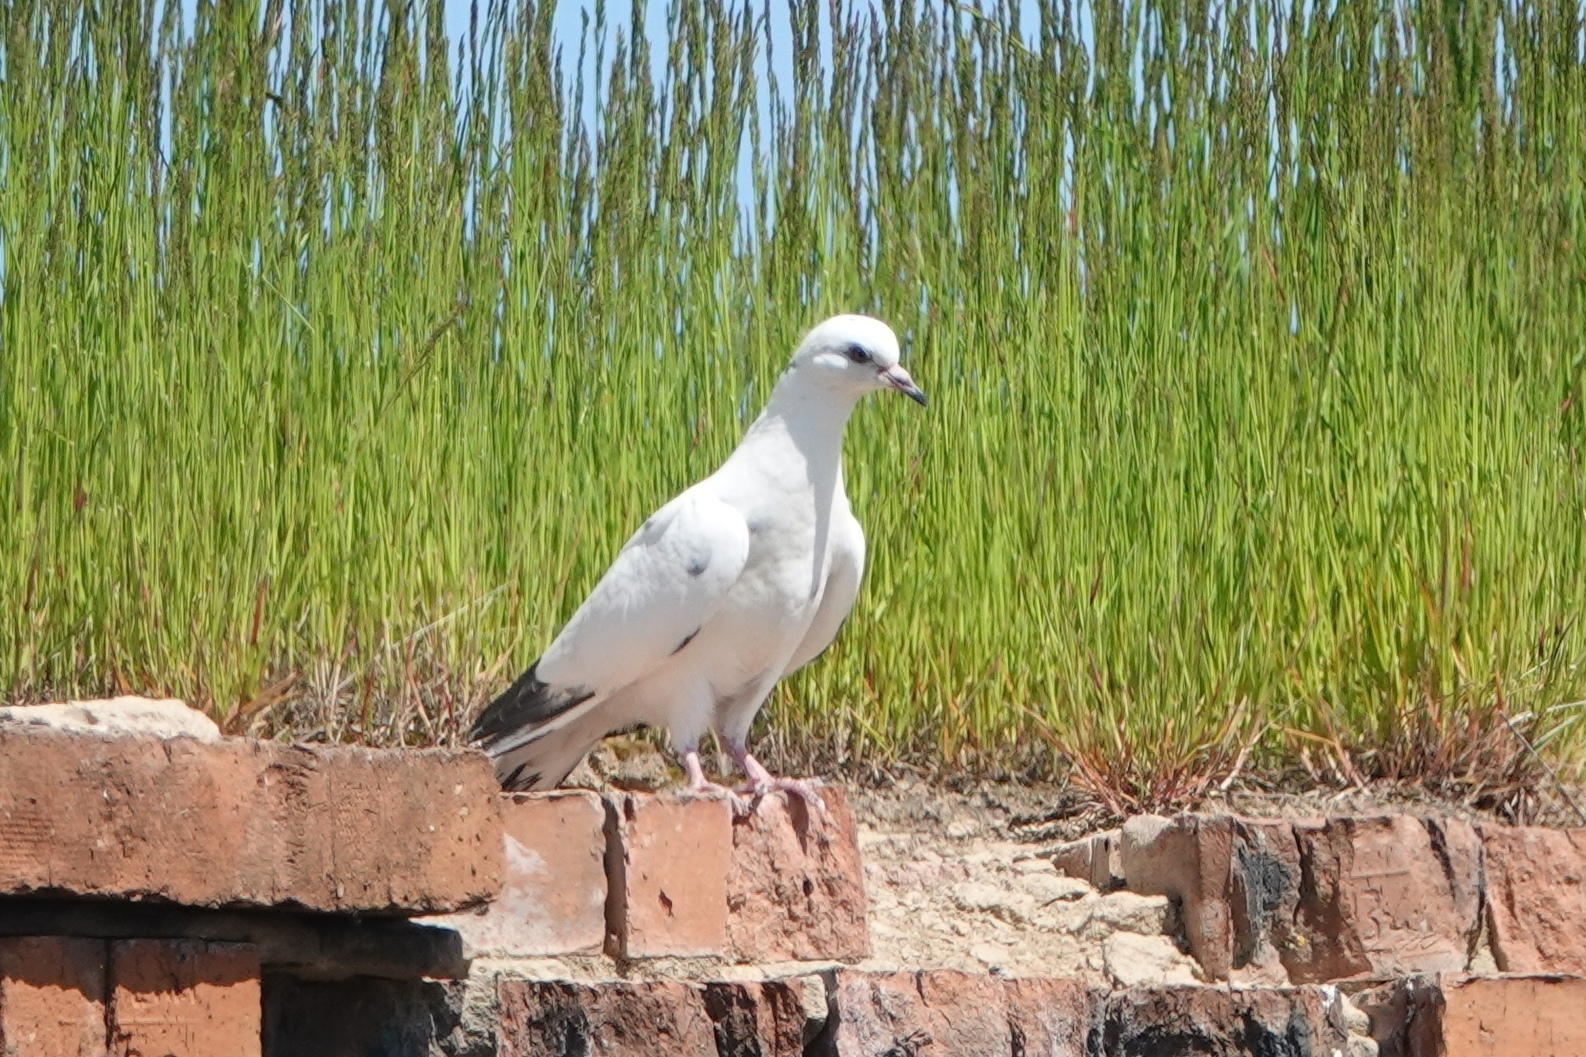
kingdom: Animalia
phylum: Chordata
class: Aves
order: Columbiformes
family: Columbidae
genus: Columba
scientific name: Columba livia
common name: Rock pigeon
